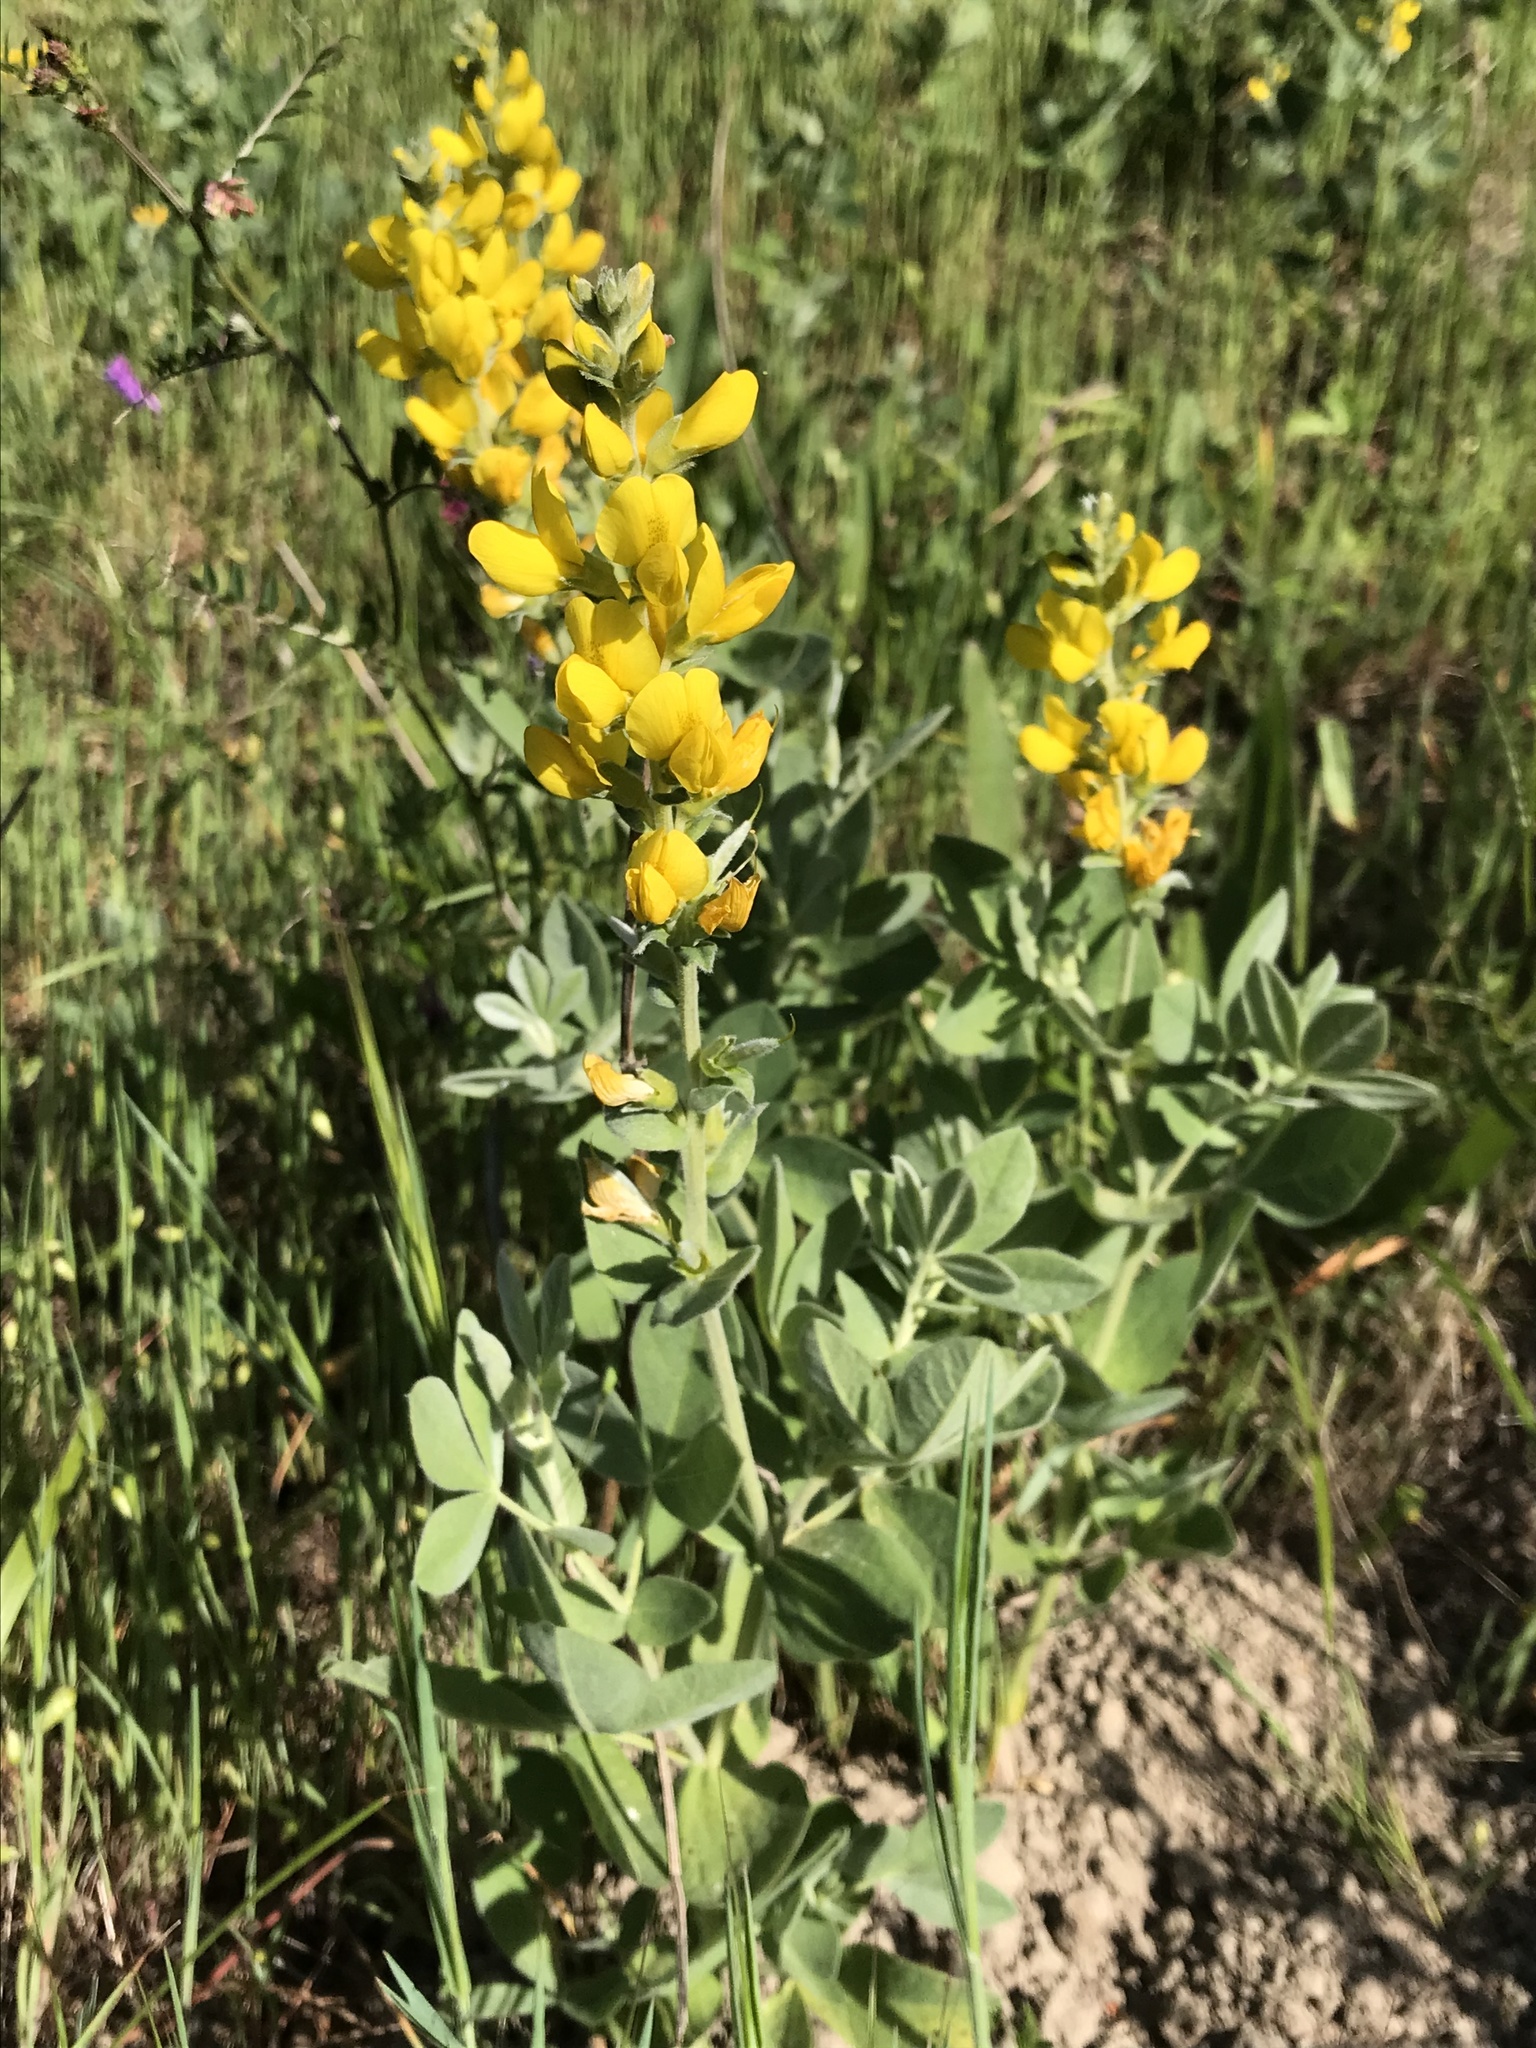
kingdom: Plantae
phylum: Tracheophyta
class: Magnoliopsida
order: Fabales
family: Fabaceae
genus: Thermopsis
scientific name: Thermopsis californica
